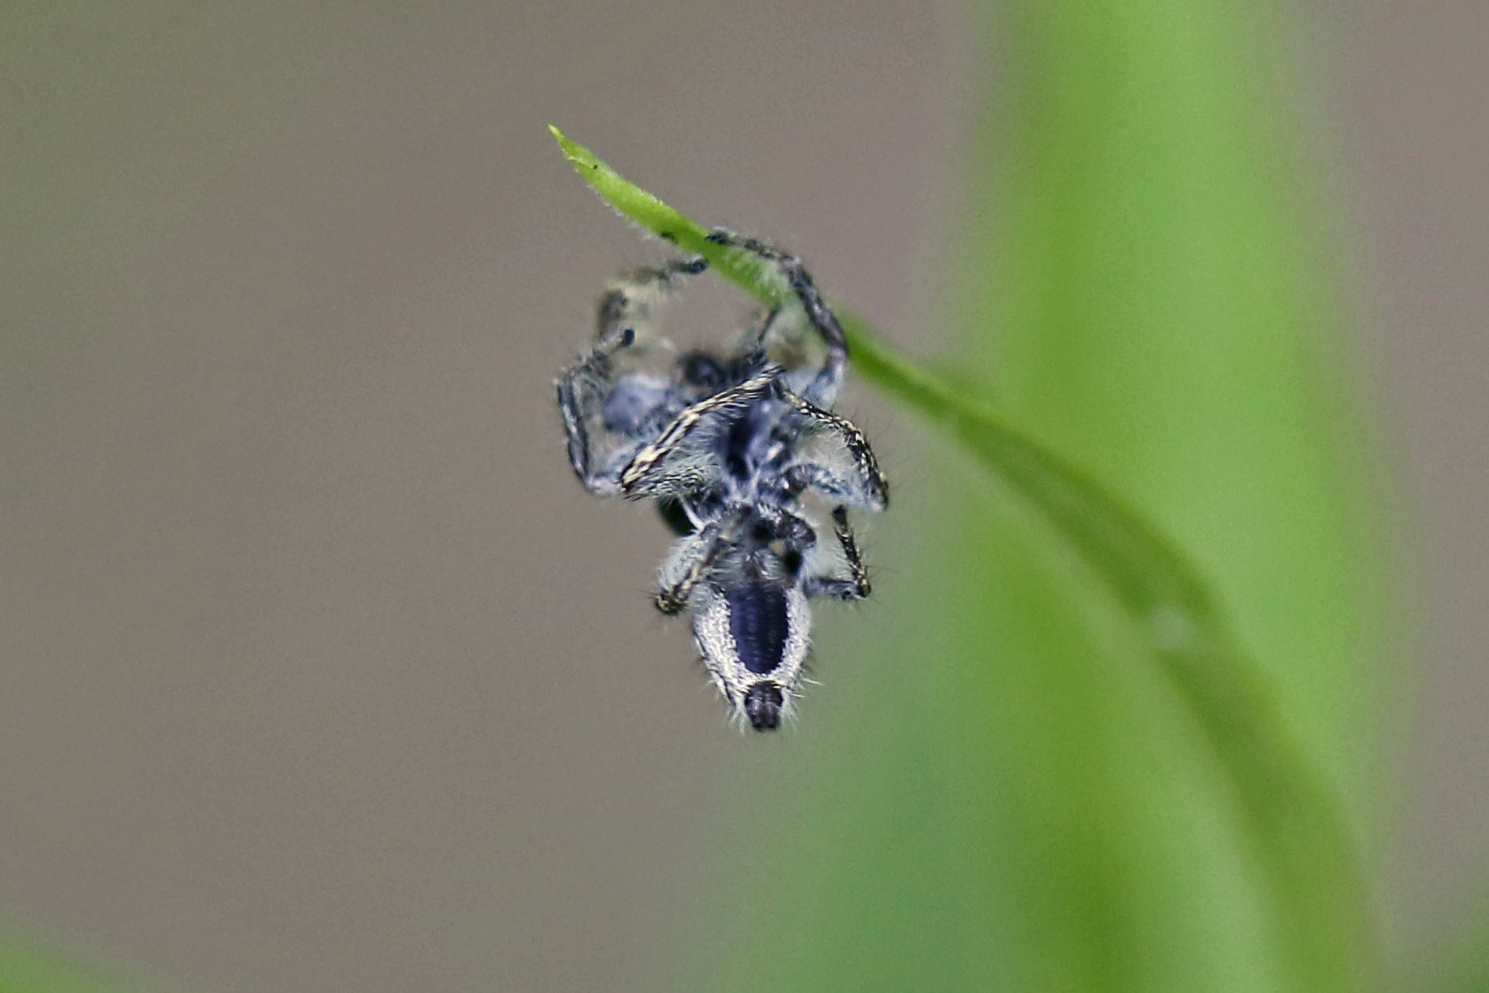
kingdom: Animalia
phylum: Arthropoda
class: Arachnida
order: Araneae
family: Salticidae
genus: Phidippus
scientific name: Phidippus putnami
